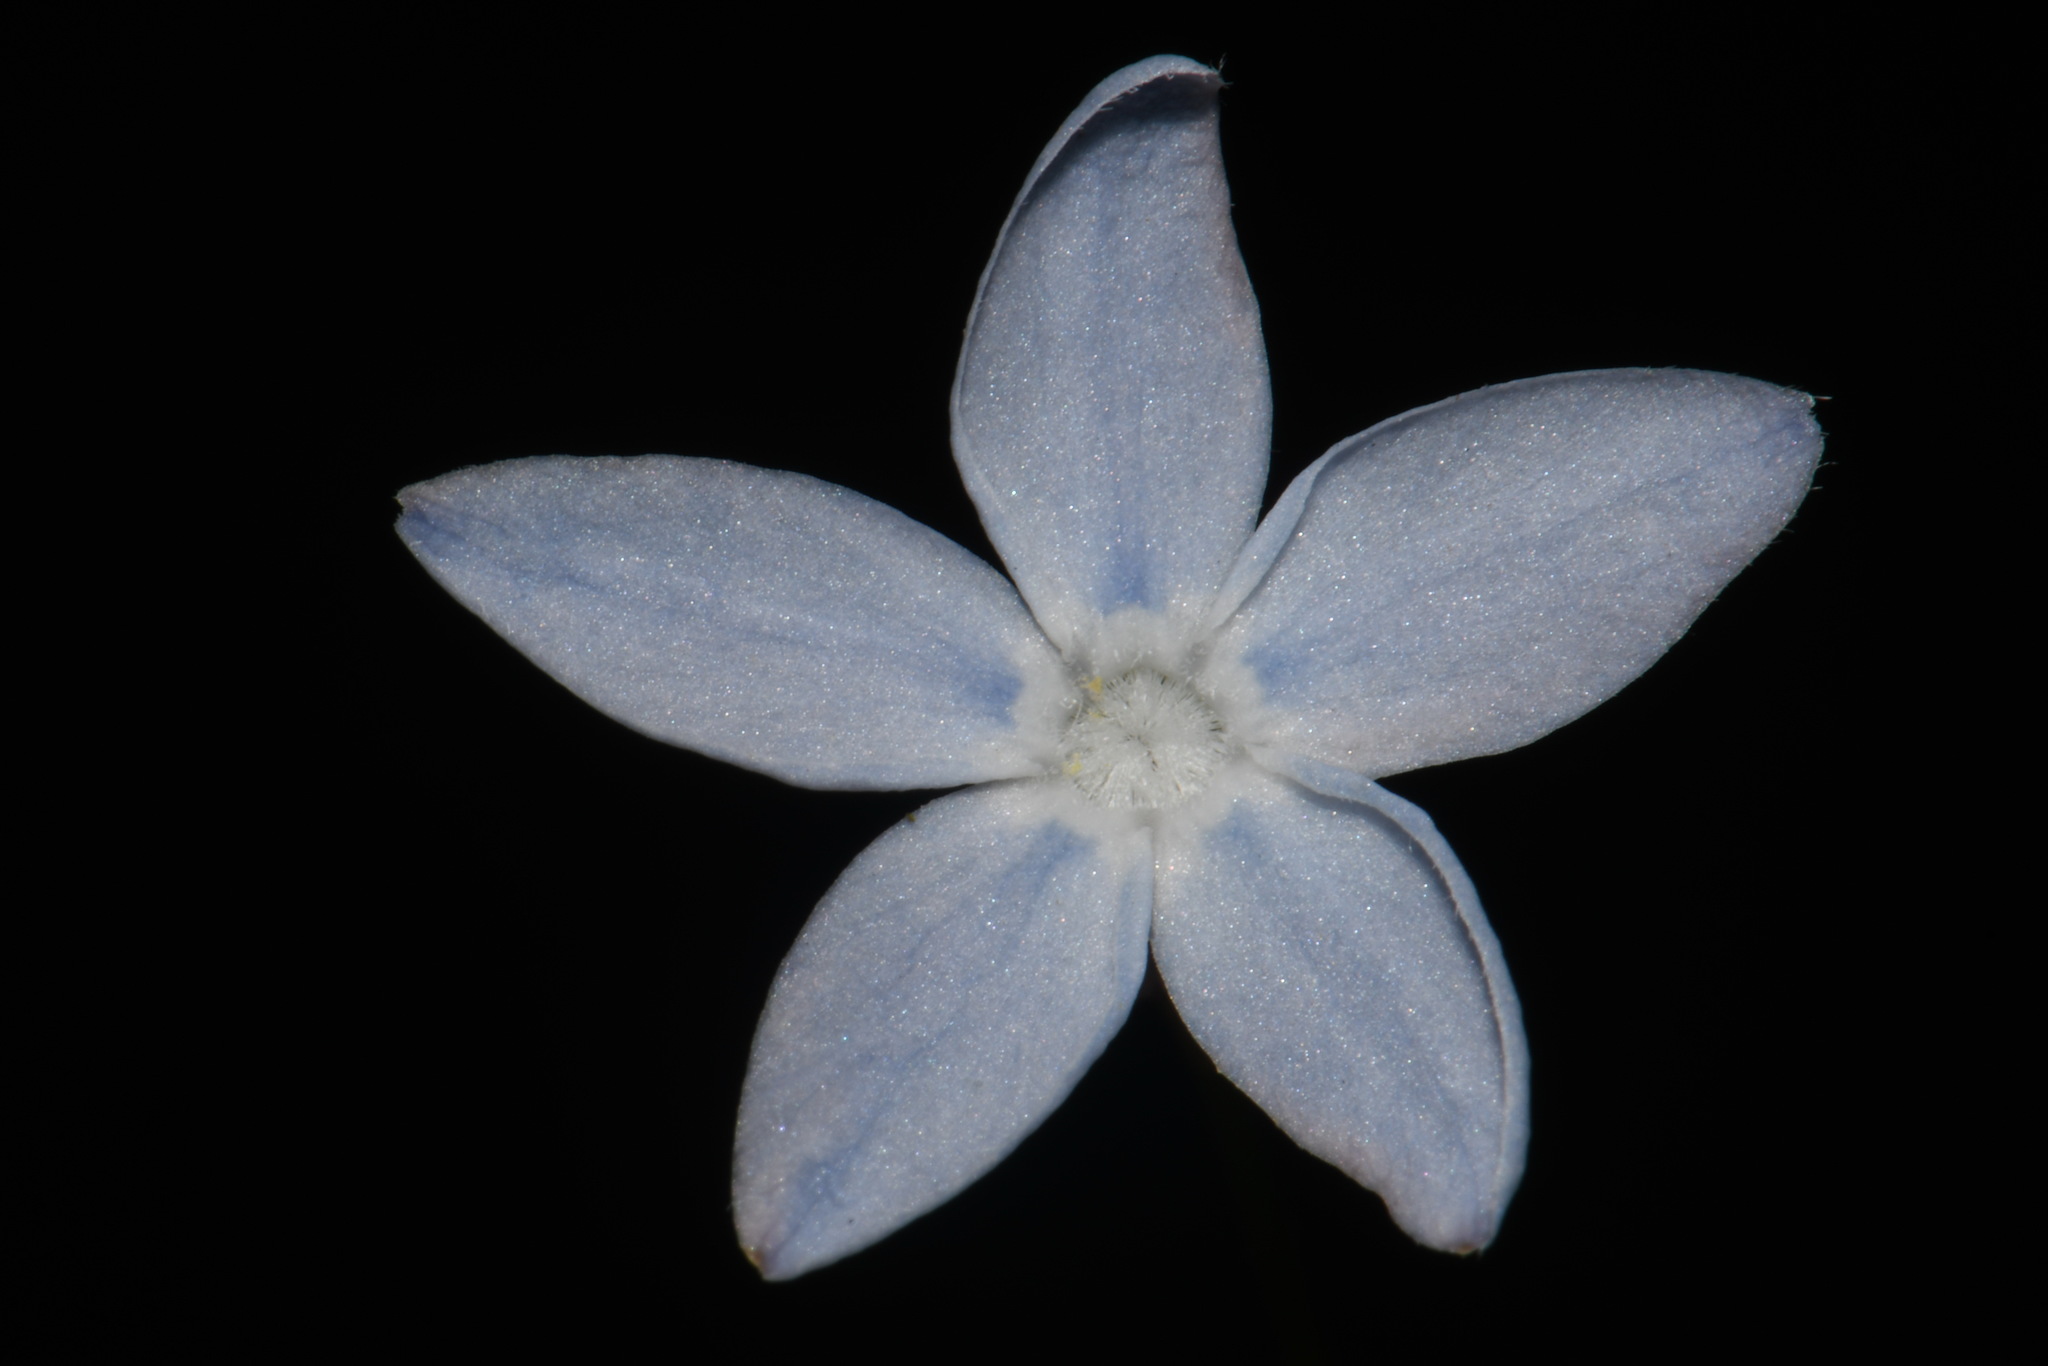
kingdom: Plantae
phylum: Tracheophyta
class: Magnoliopsida
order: Gentianales
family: Apocynaceae
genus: Amsonia
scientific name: Amsonia ciliata
